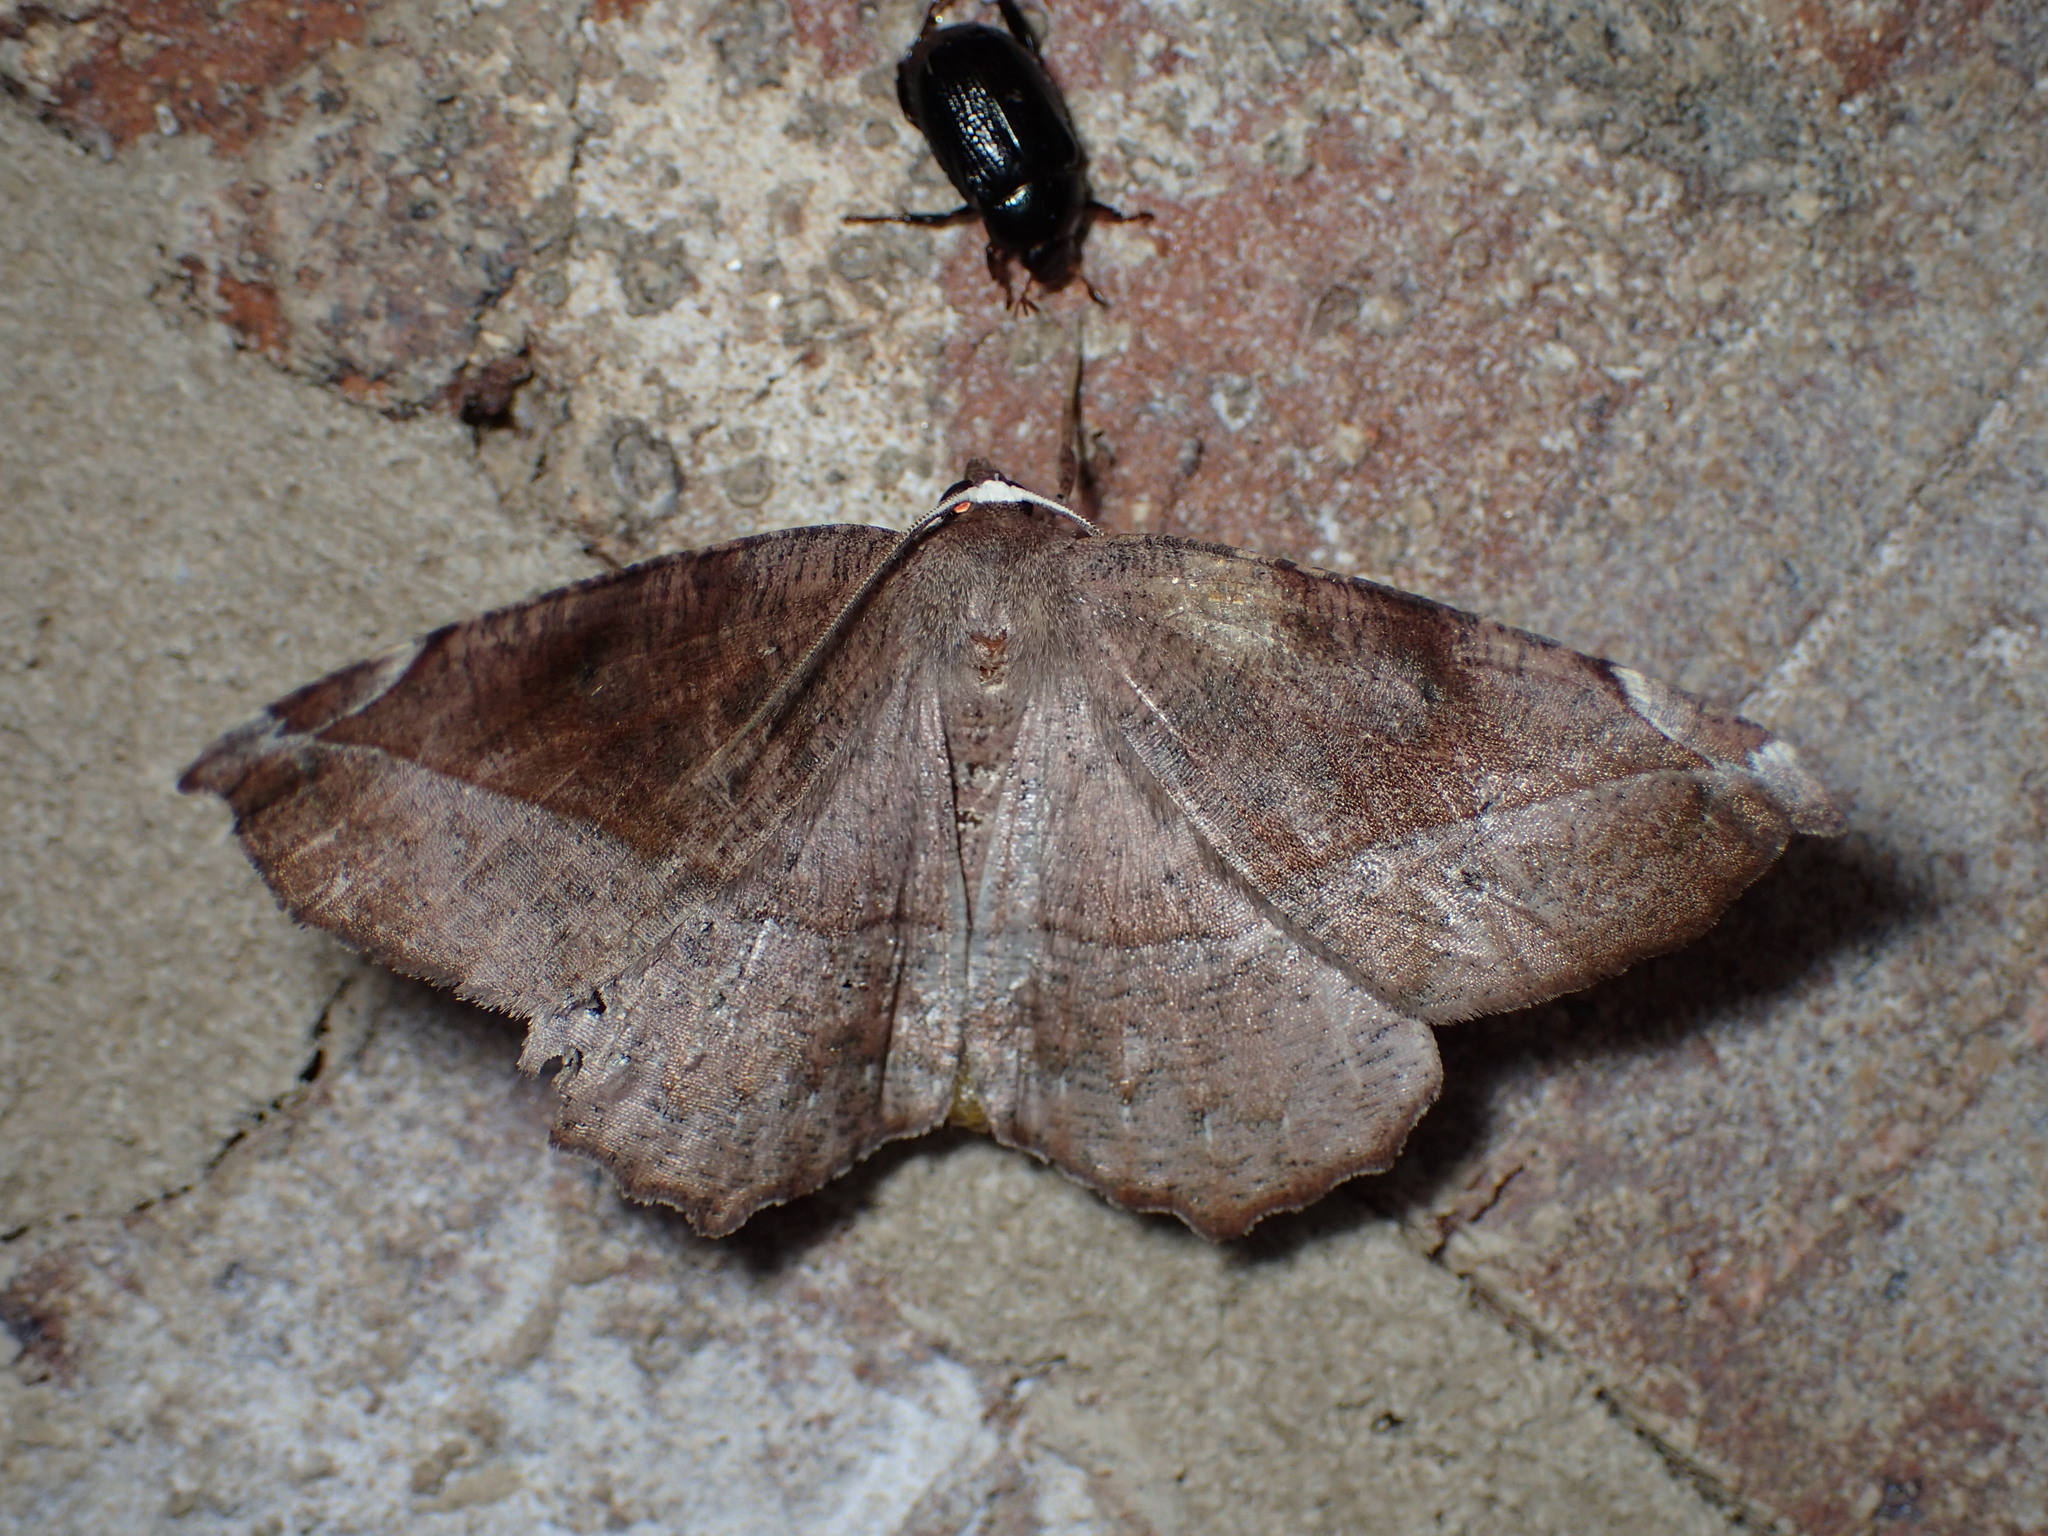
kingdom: Animalia
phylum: Arthropoda
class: Insecta
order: Lepidoptera
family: Geometridae
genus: Eutrapela
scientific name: Eutrapela clemataria
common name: Curved-toothed geometer
